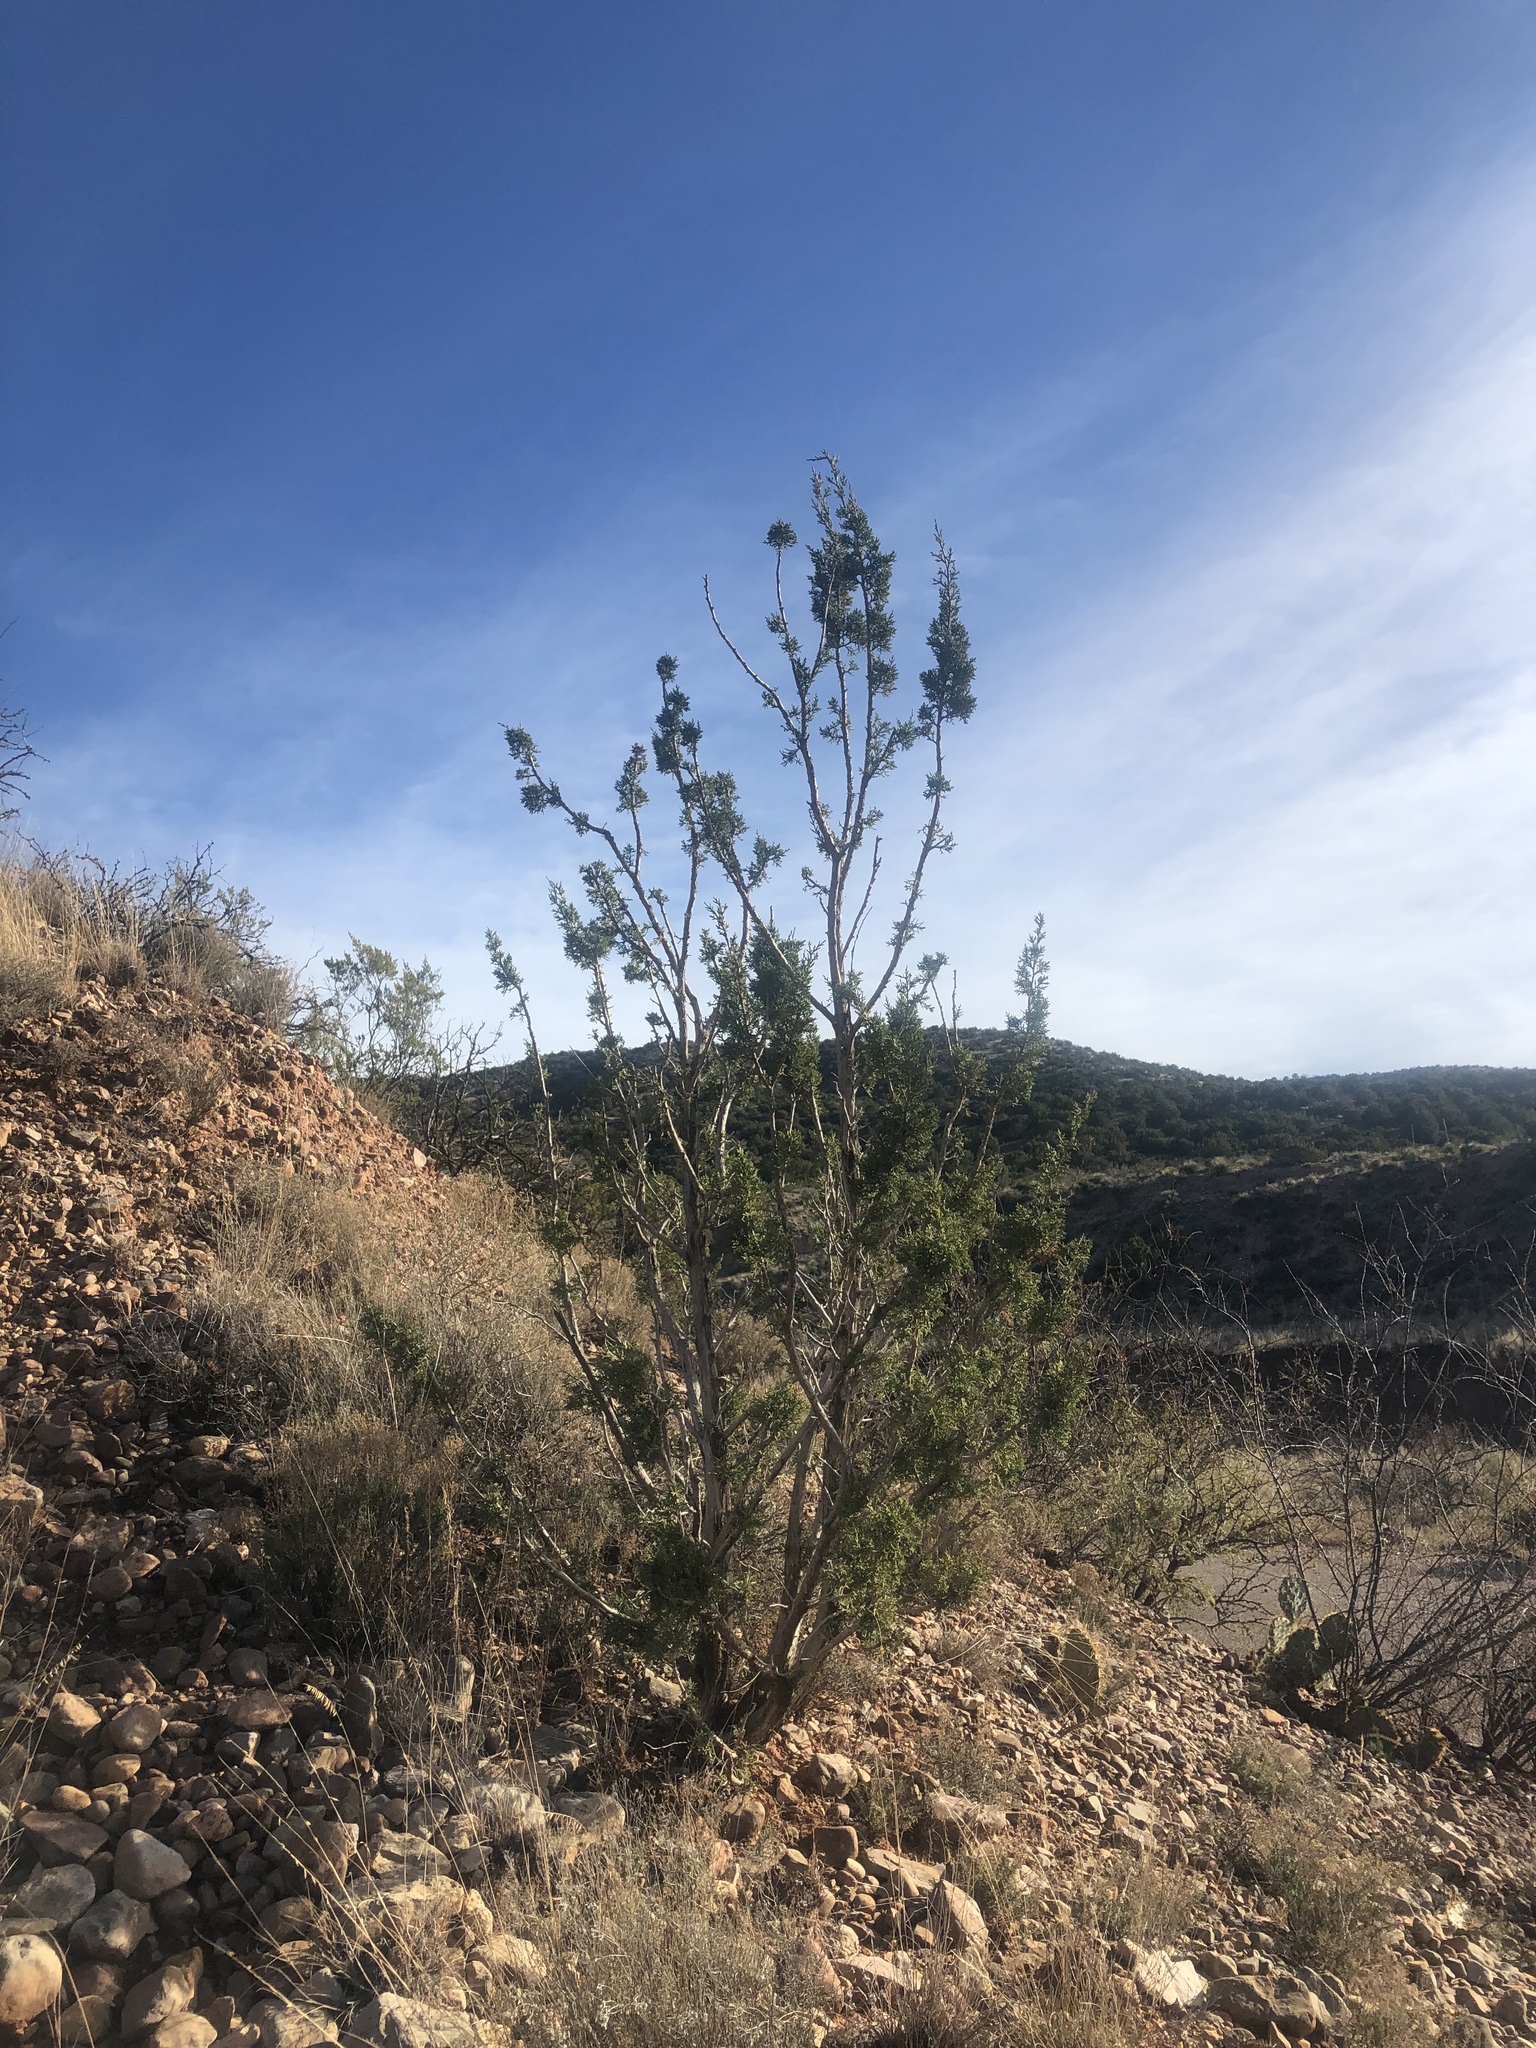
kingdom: Plantae
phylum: Tracheophyta
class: Pinopsida
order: Pinales
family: Cupressaceae
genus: Juniperus
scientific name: Juniperus monosperma
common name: One-seed juniper
